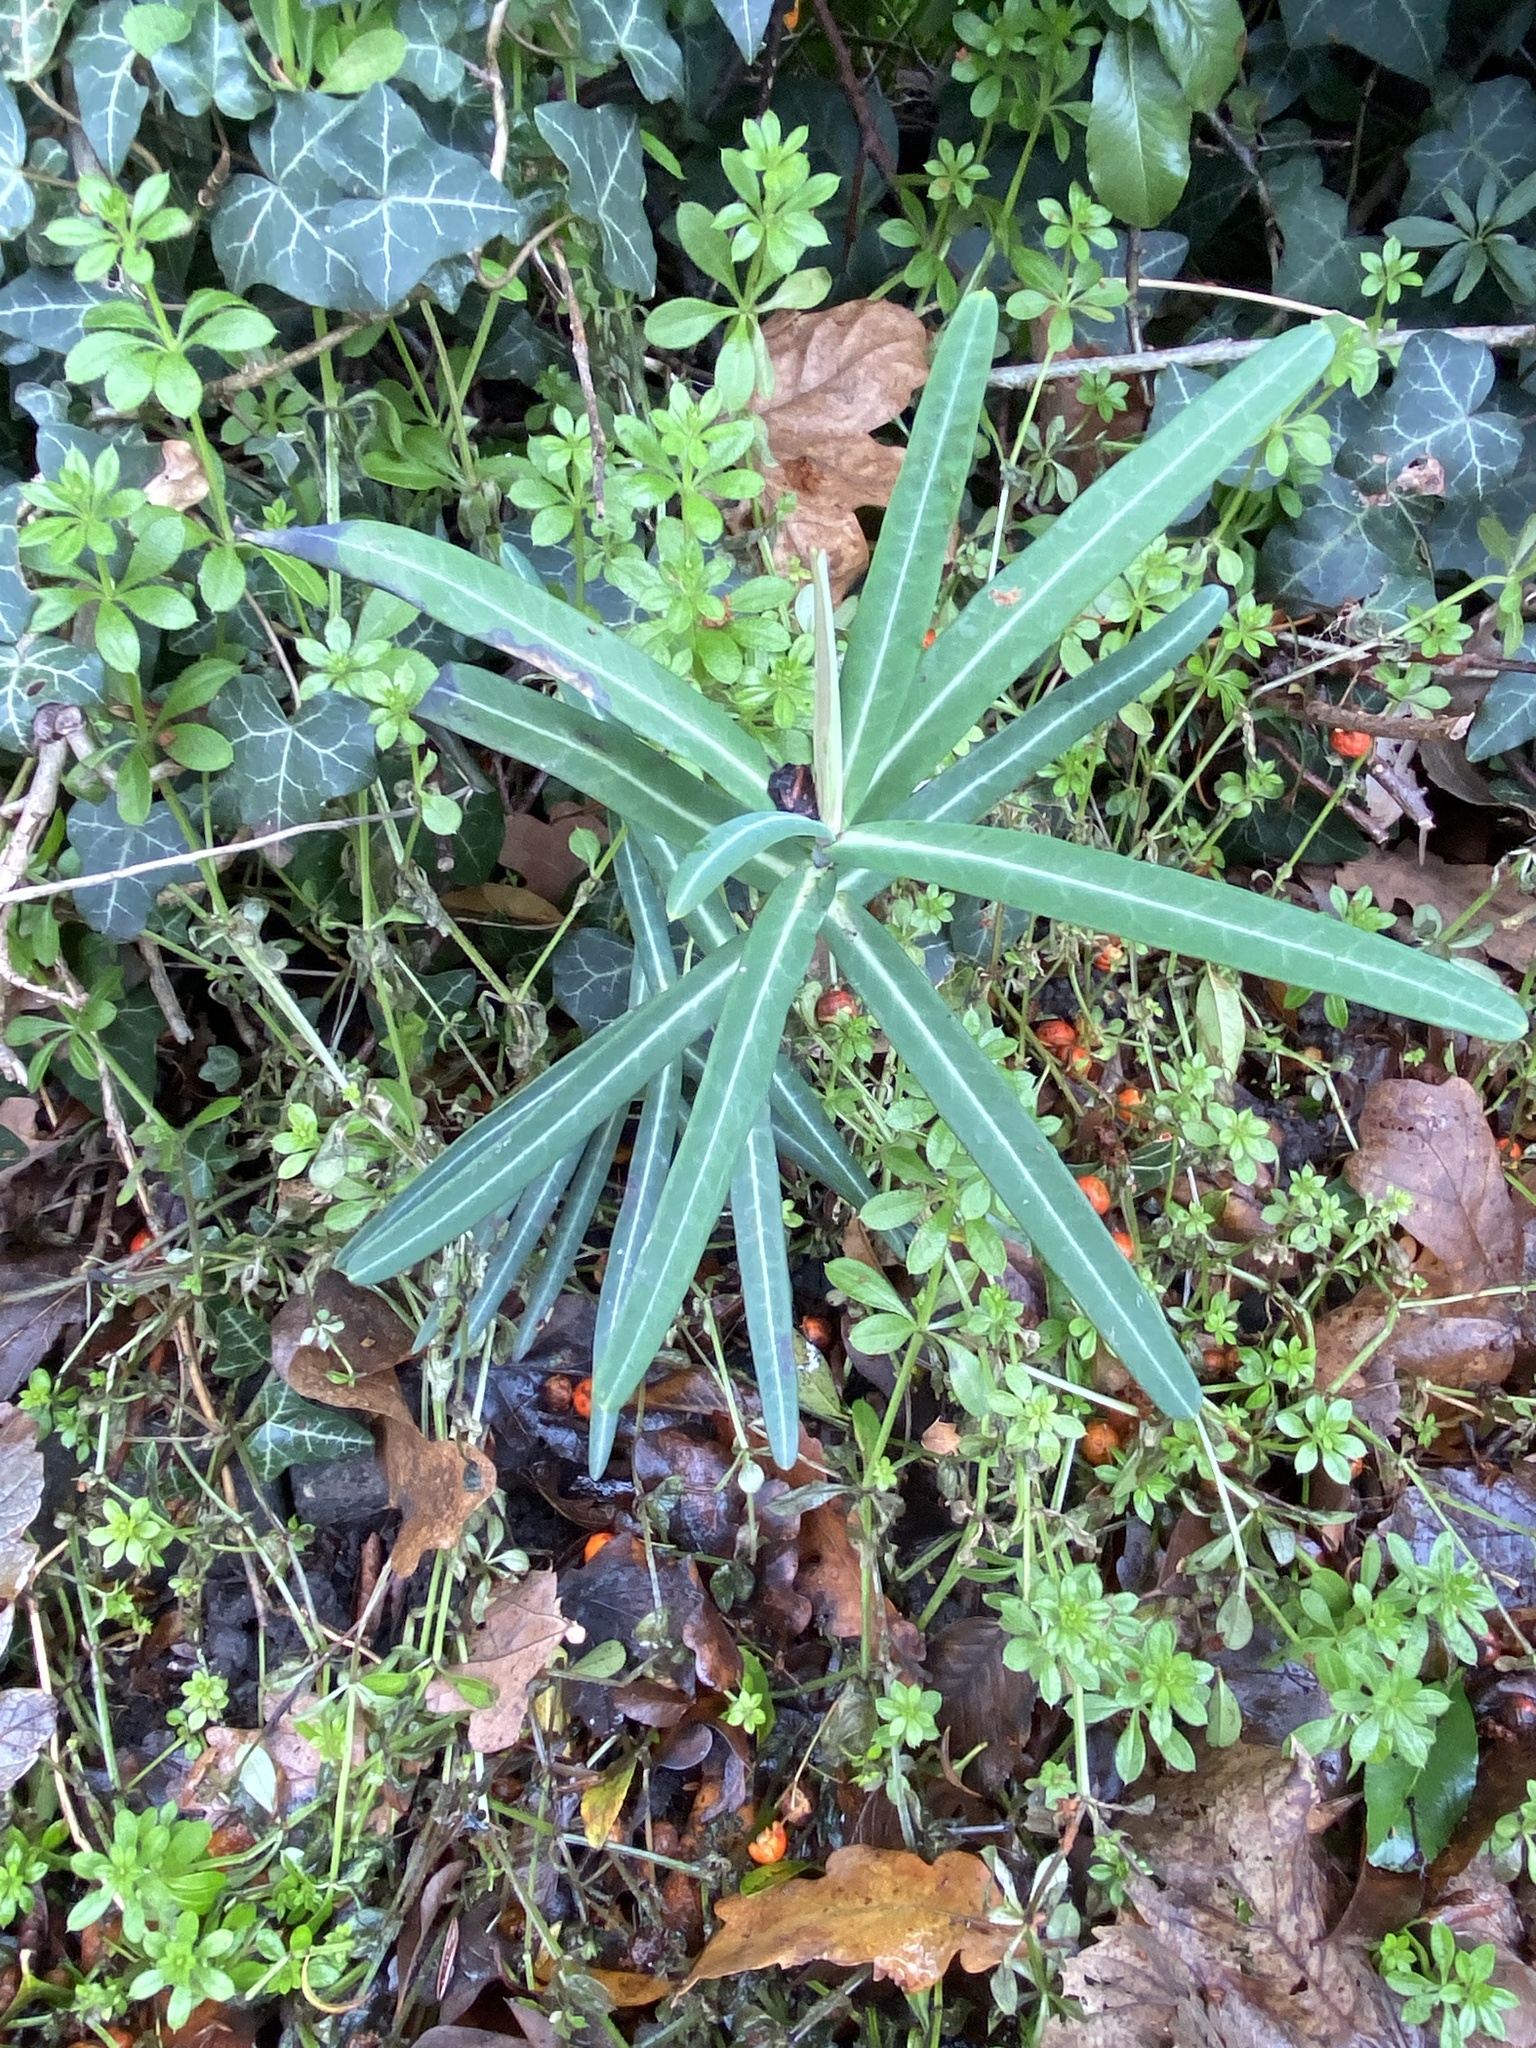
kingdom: Plantae
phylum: Tracheophyta
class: Magnoliopsida
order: Malpighiales
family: Euphorbiaceae
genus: Euphorbia
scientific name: Euphorbia lathyris
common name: Caper spurge
